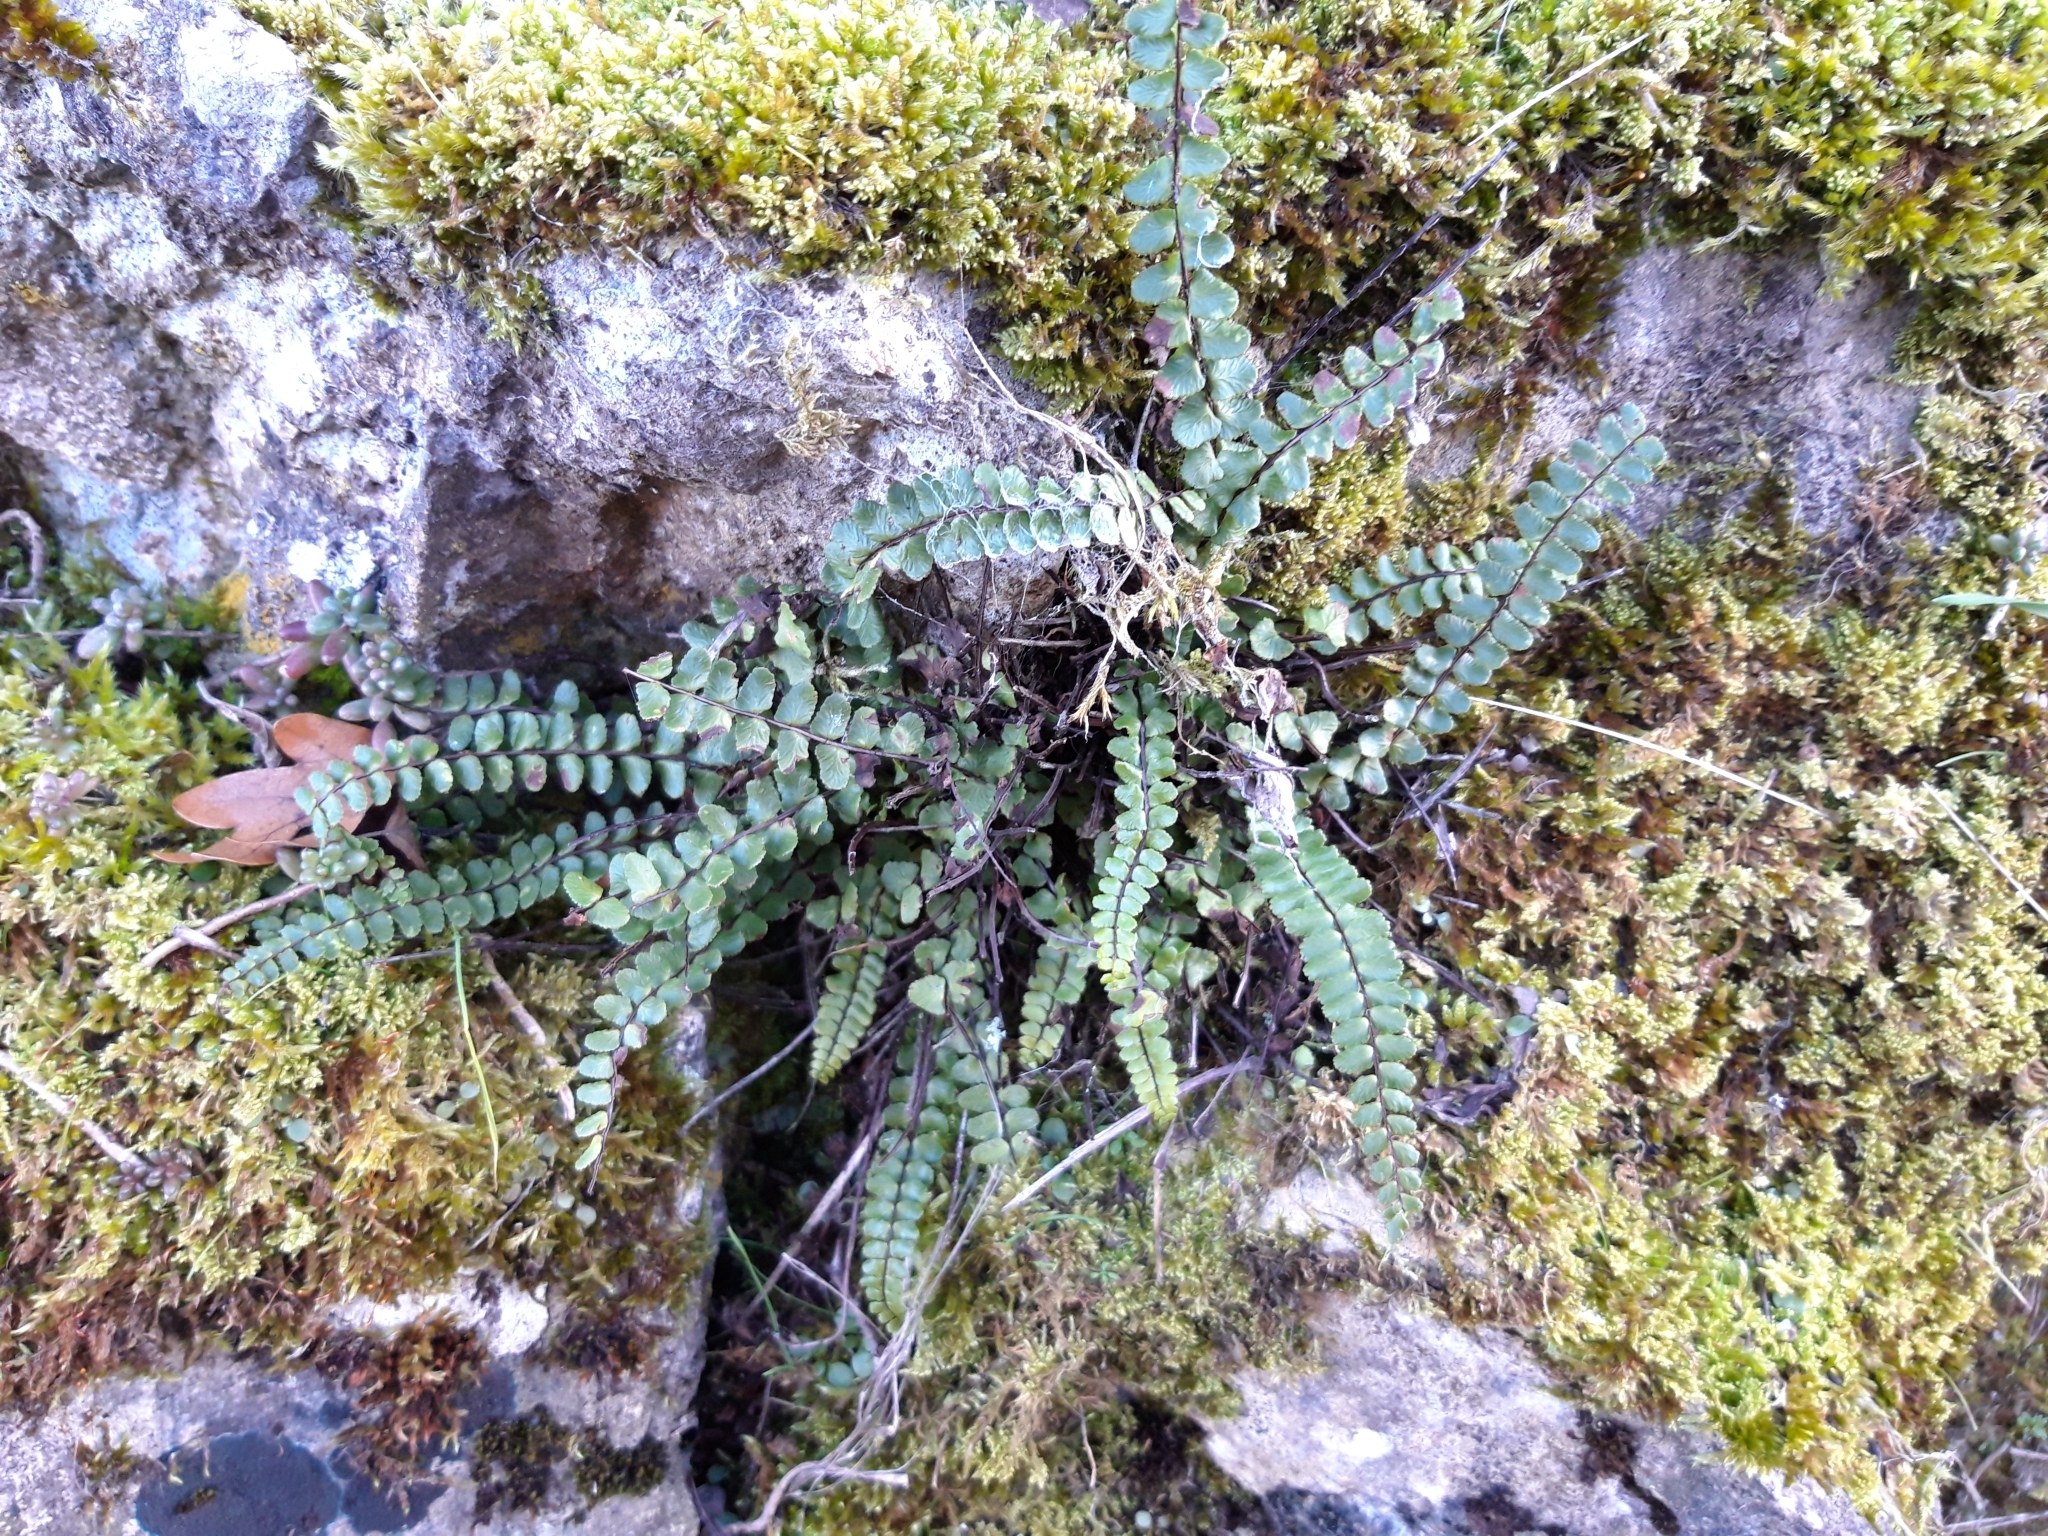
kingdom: Plantae
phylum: Tracheophyta
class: Polypodiopsida
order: Polypodiales
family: Aspleniaceae
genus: Asplenium
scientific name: Asplenium trichomanes
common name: Maidenhair spleenwort
